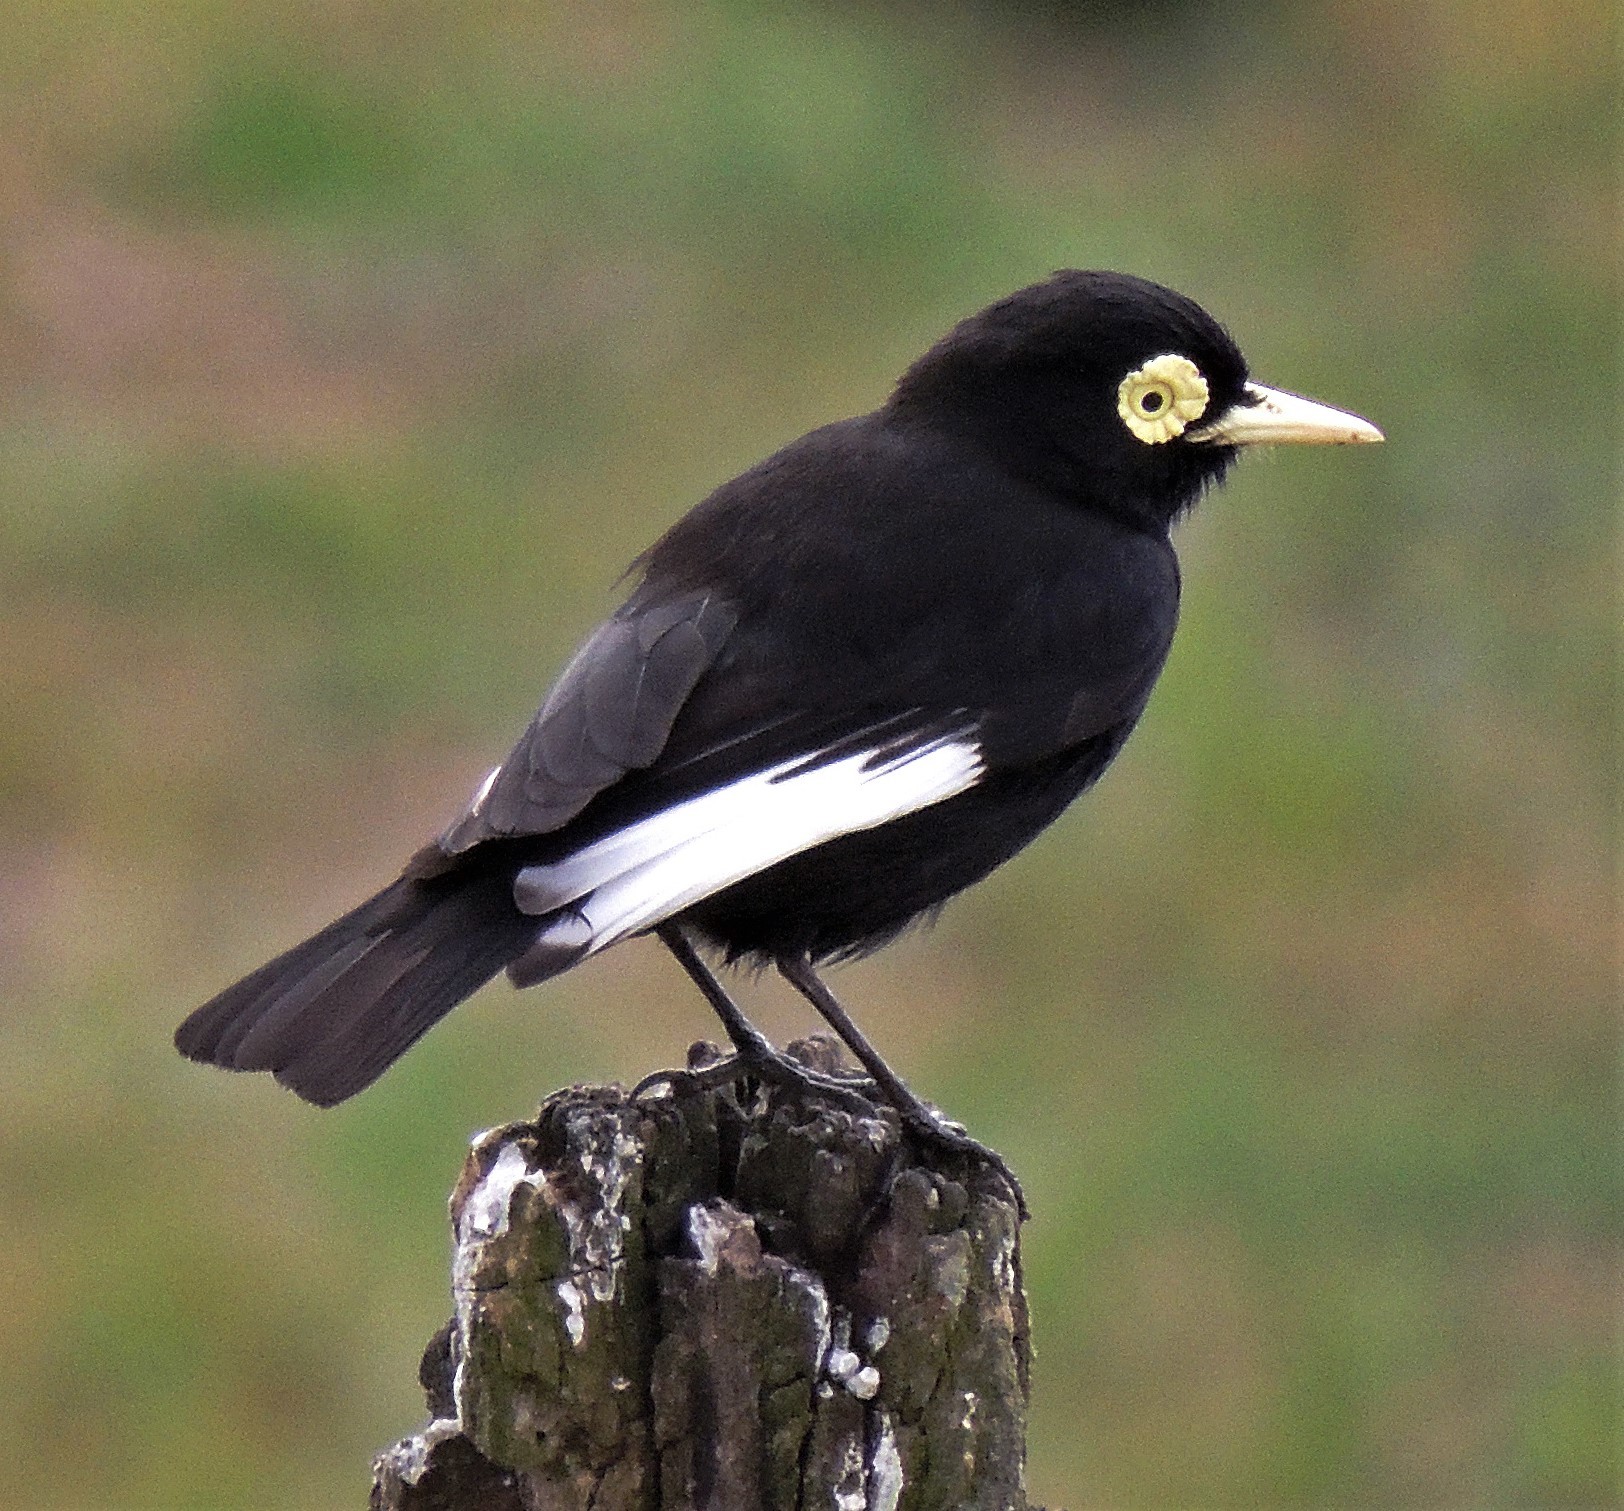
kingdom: Animalia
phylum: Chordata
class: Aves
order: Passeriformes
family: Tyrannidae
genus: Hymenops
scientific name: Hymenops perspicillatus
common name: Spectacled tyrant
